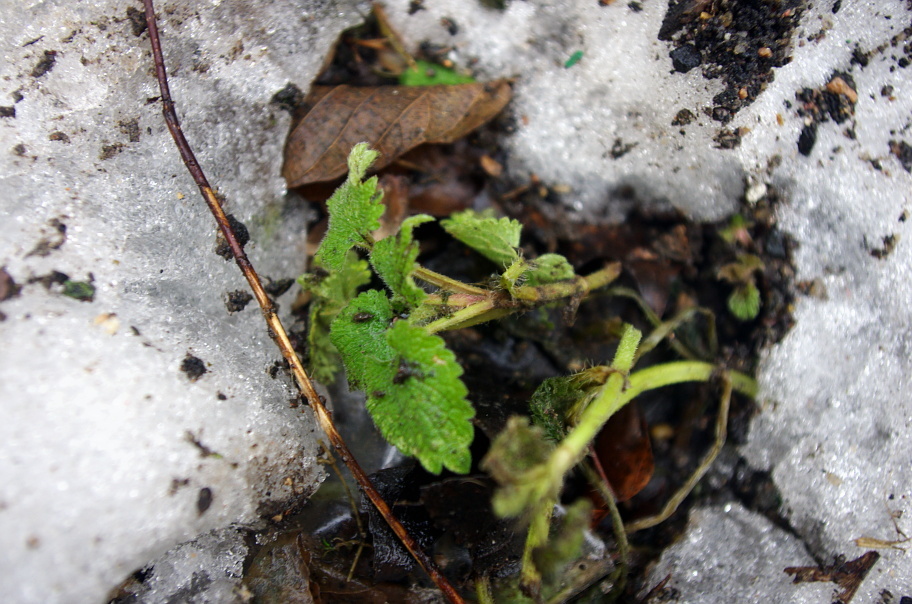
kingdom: Plantae
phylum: Tracheophyta
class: Magnoliopsida
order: Lamiales
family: Lamiaceae
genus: Lamium
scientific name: Lamium album
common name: White dead-nettle
